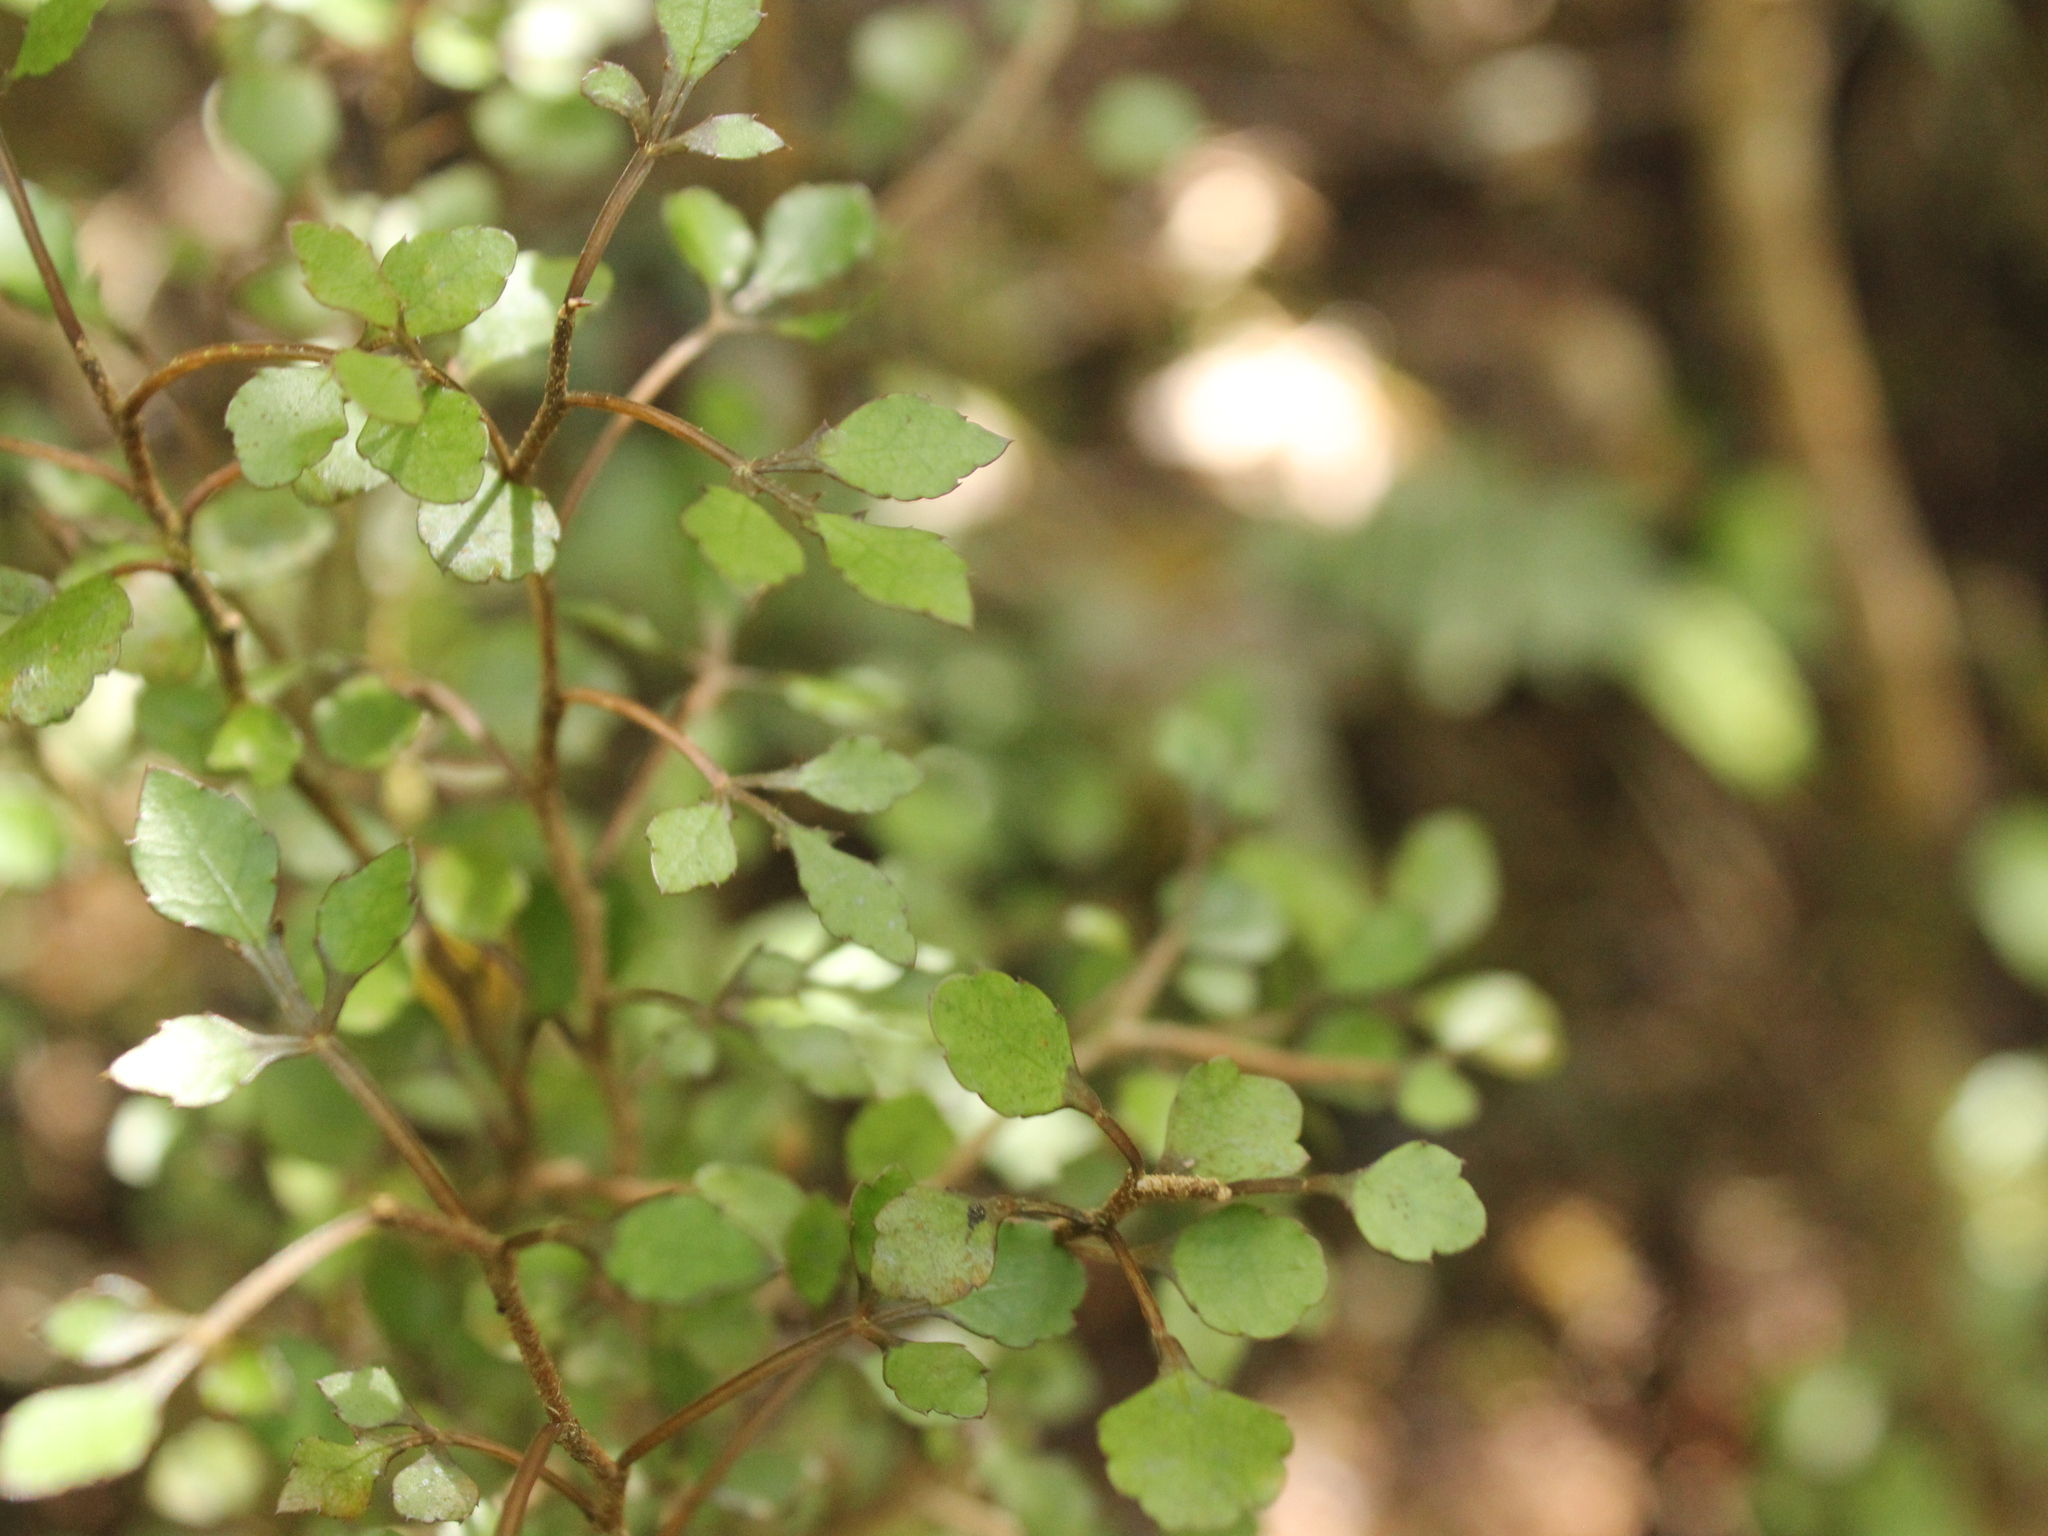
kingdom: Plantae
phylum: Tracheophyta
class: Magnoliopsida
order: Apiales
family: Araliaceae
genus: Raukaua
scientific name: Raukaua anomalus
